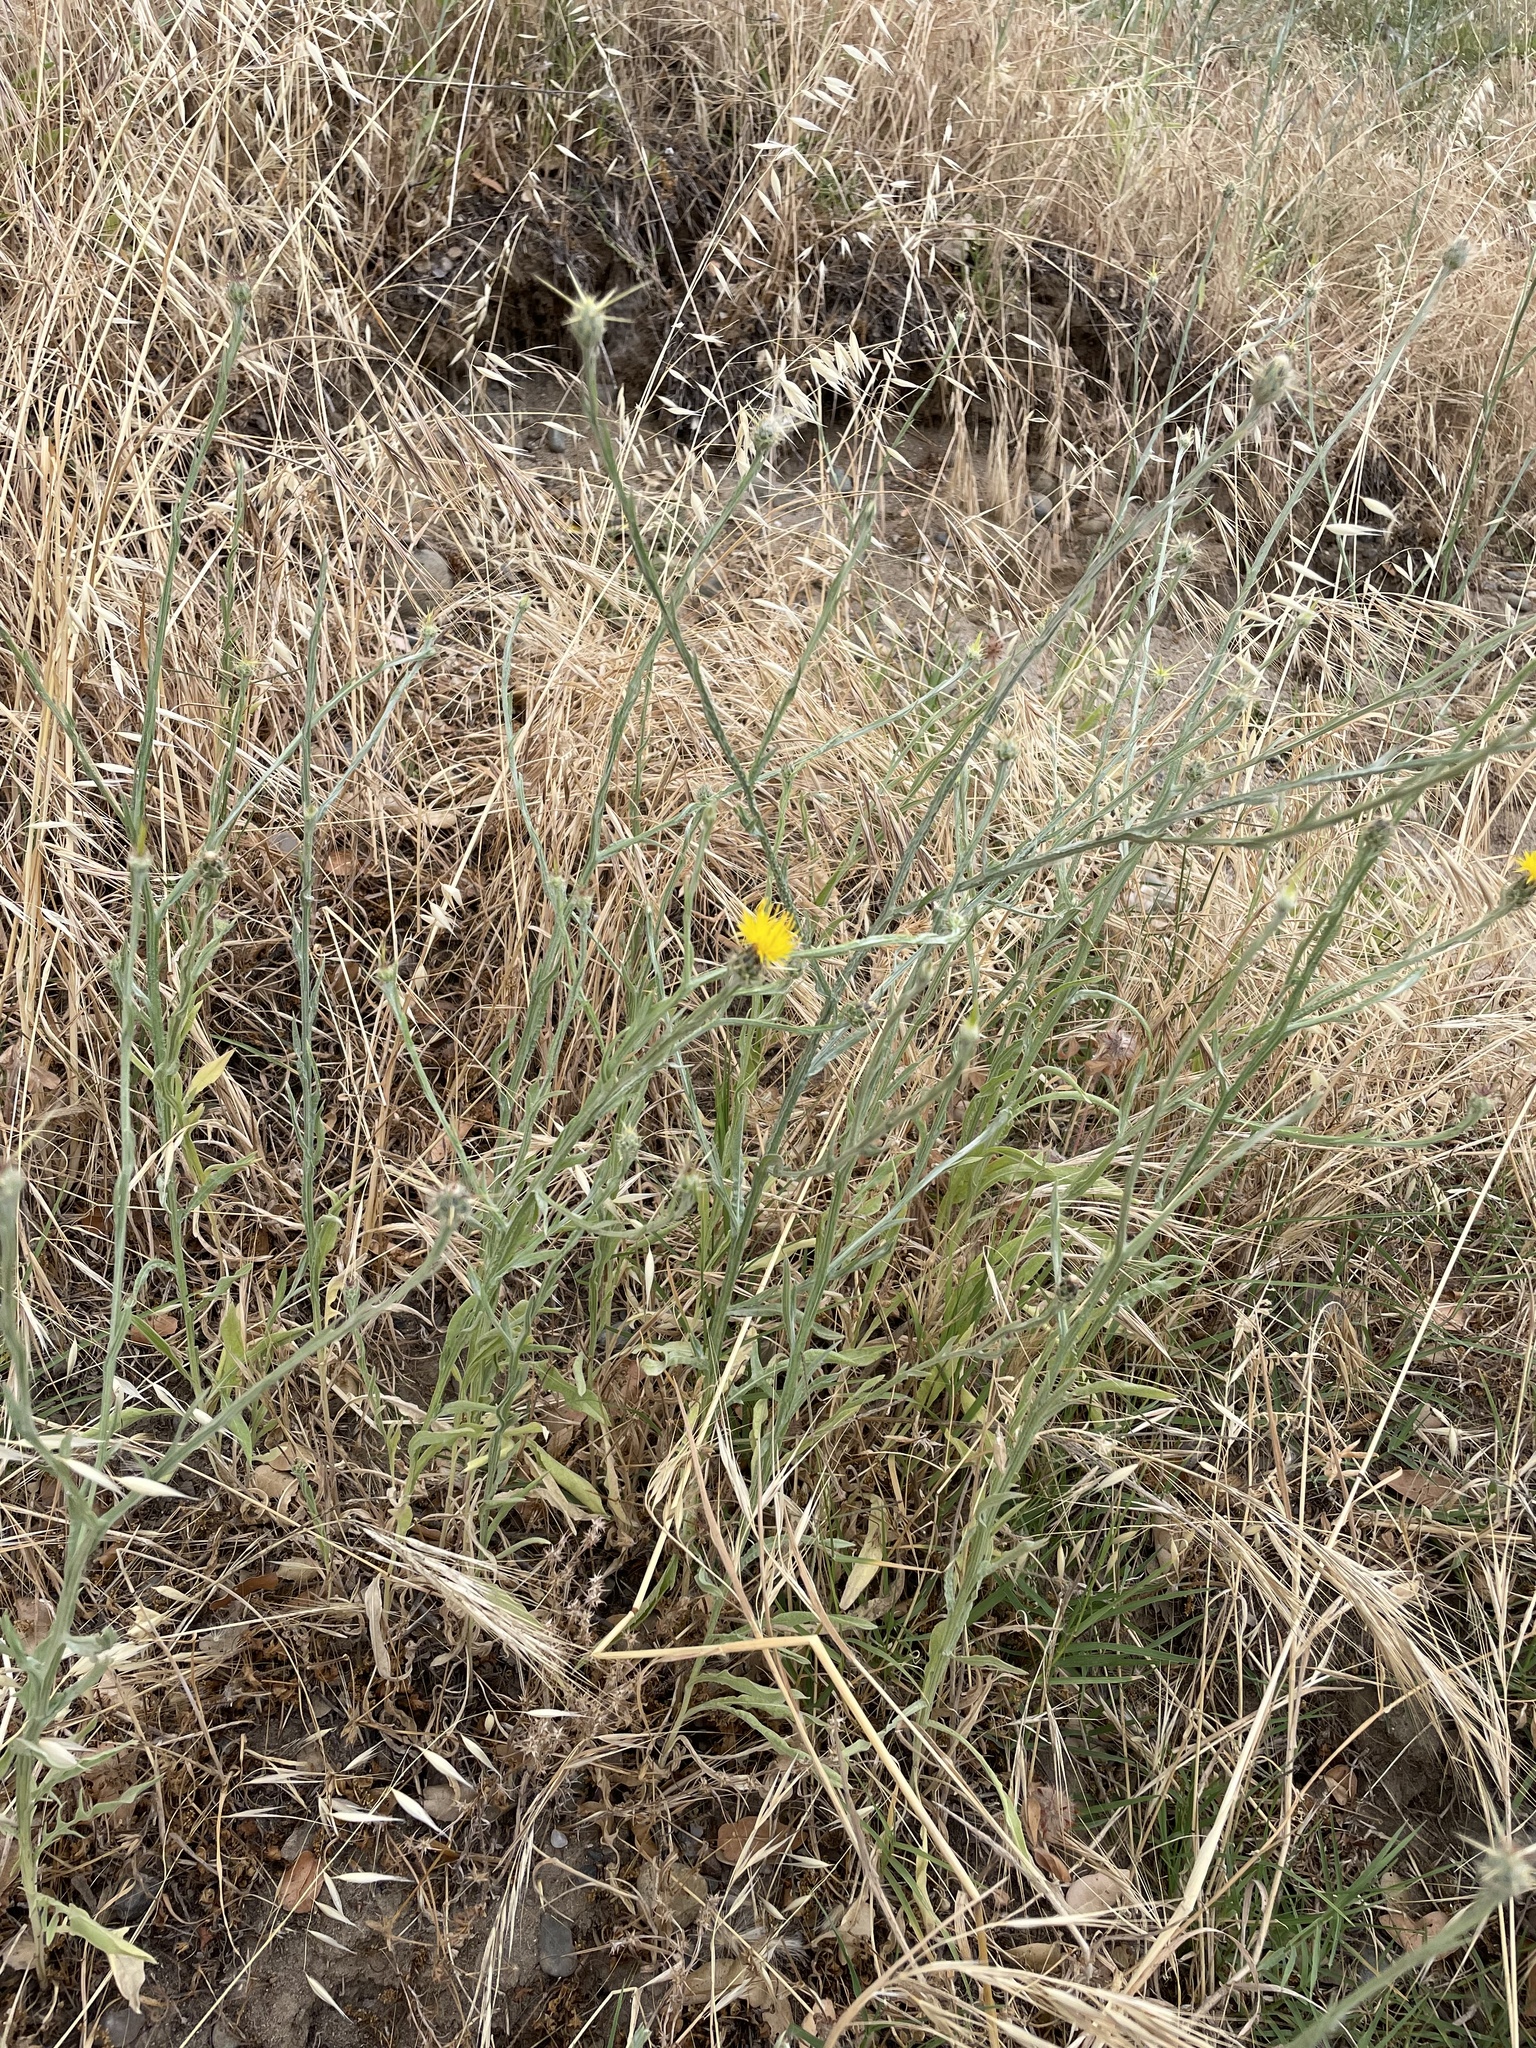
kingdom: Plantae
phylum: Tracheophyta
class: Magnoliopsida
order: Asterales
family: Asteraceae
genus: Centaurea
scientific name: Centaurea solstitialis
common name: Yellow star-thistle
